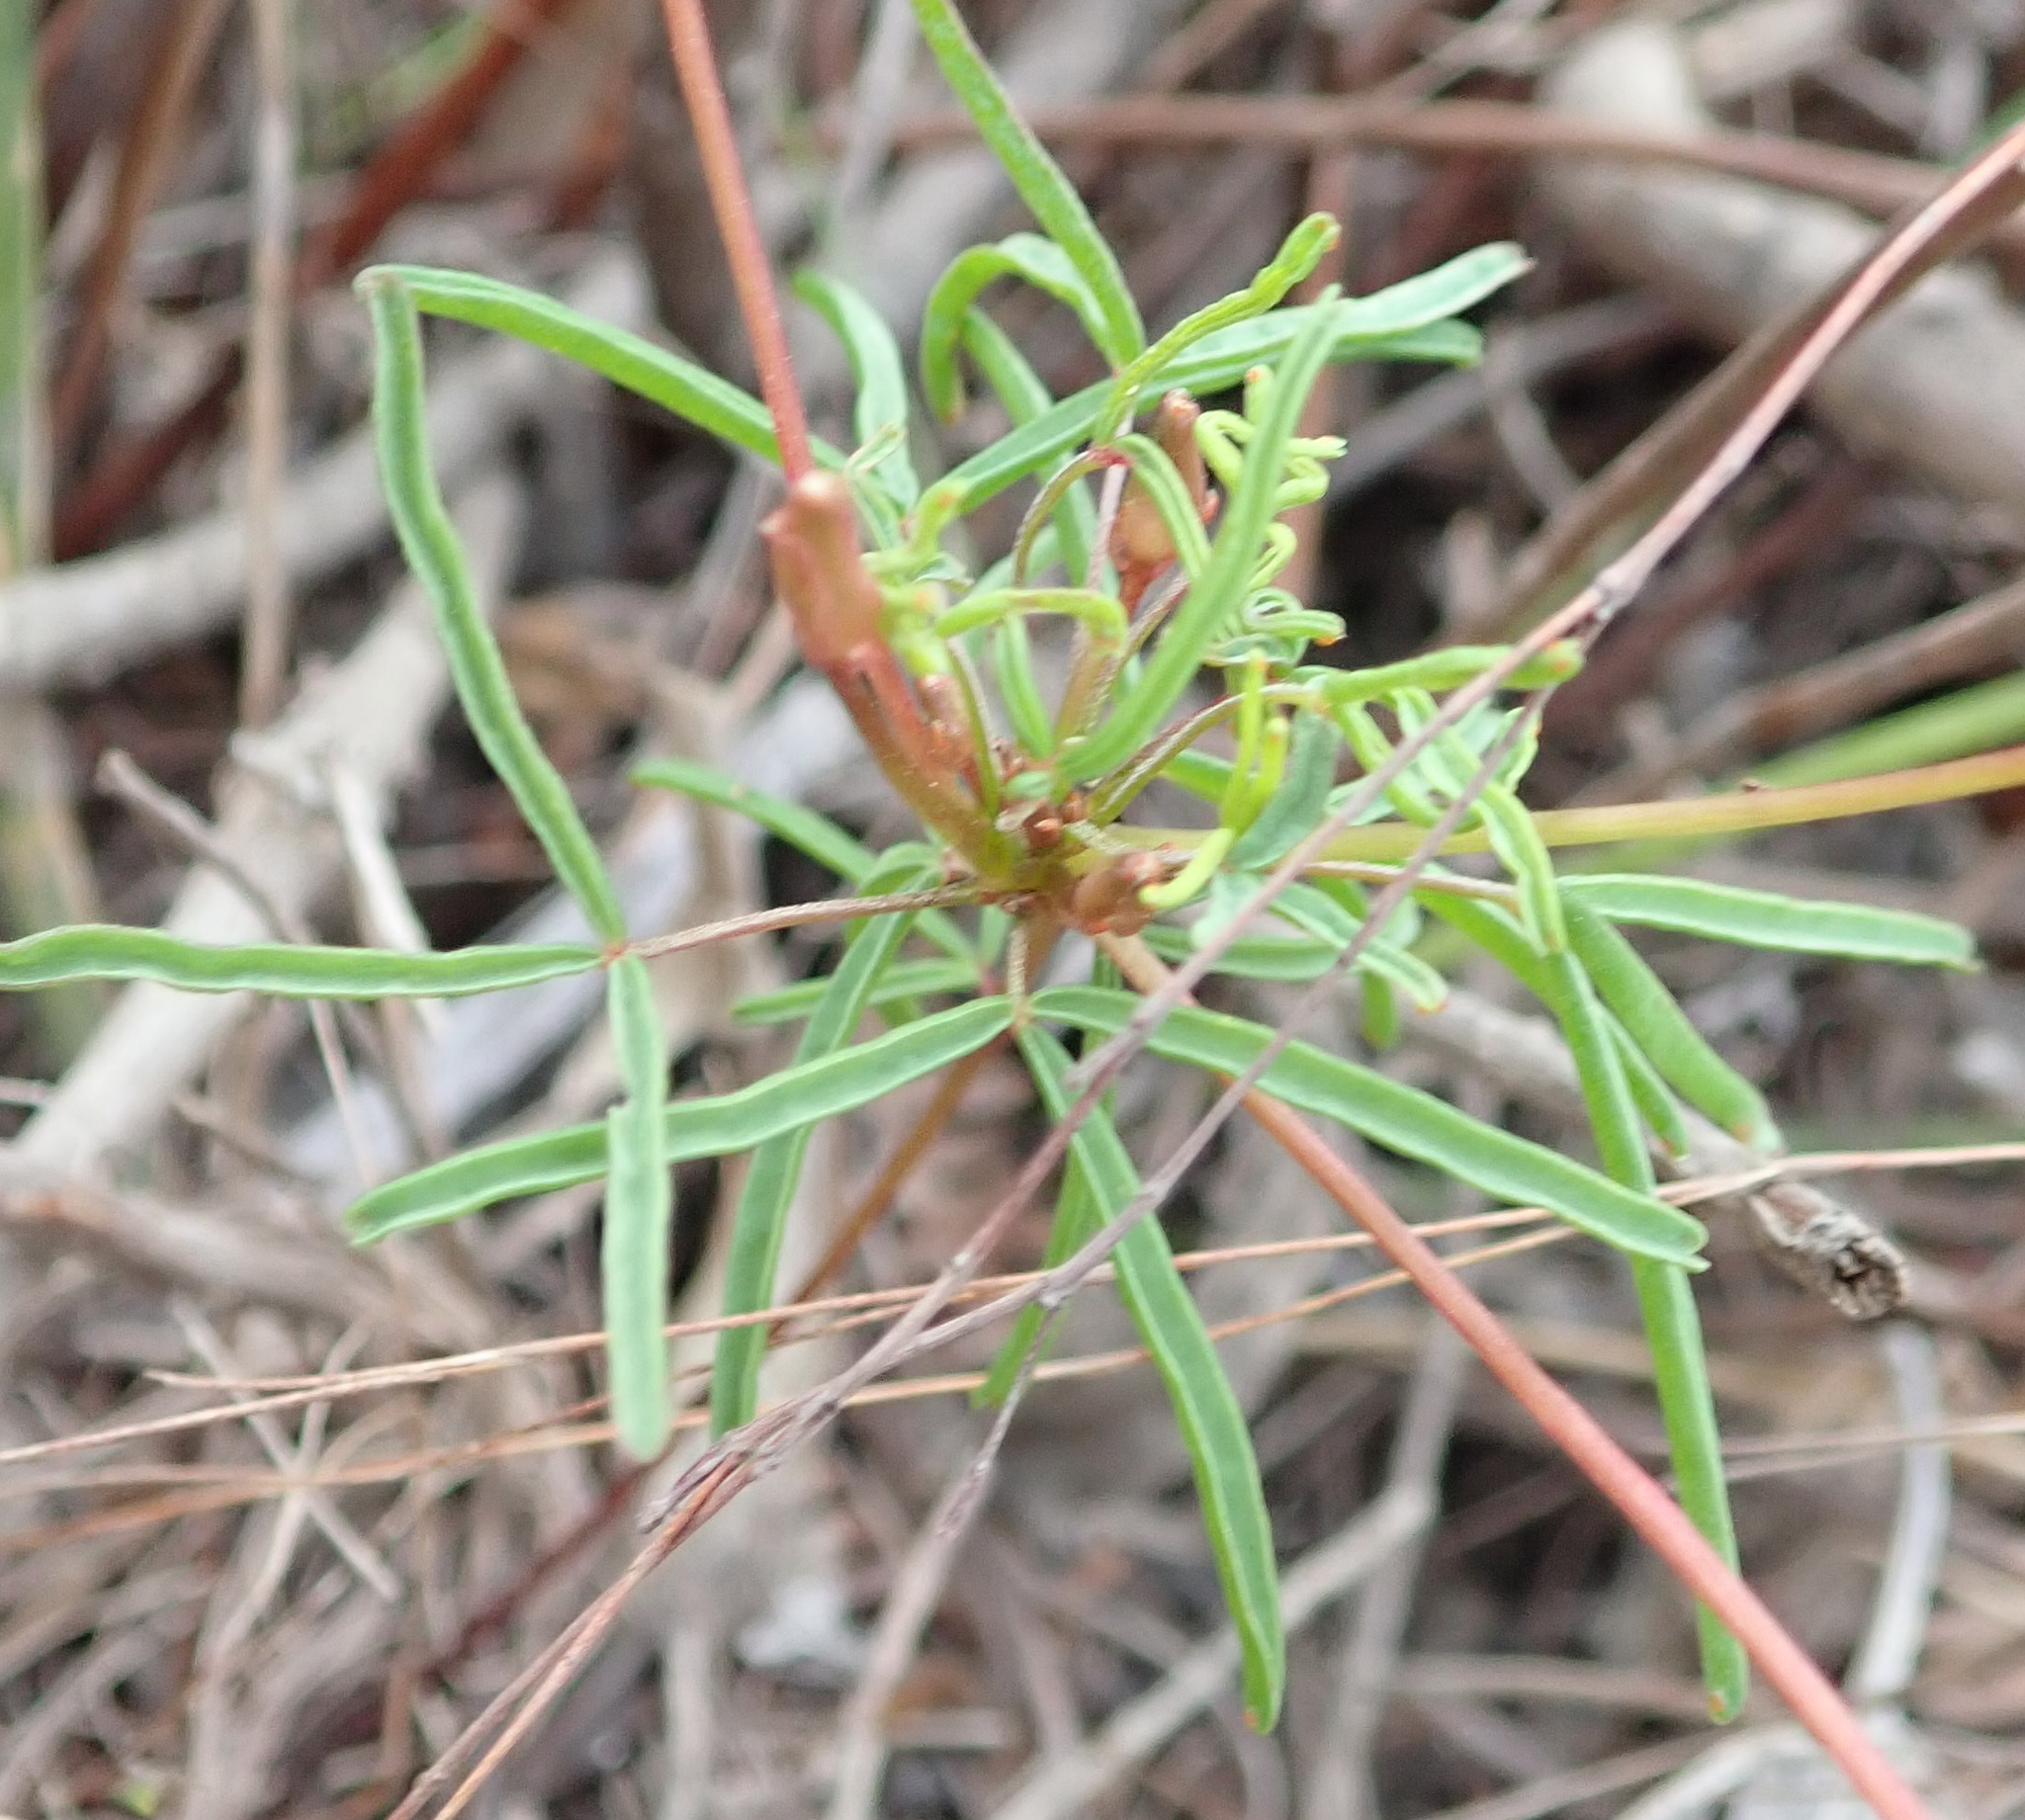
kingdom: Plantae
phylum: Tracheophyta
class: Magnoliopsida
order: Oxalidales
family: Oxalidaceae
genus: Oxalis
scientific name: Oxalis polyphylla
